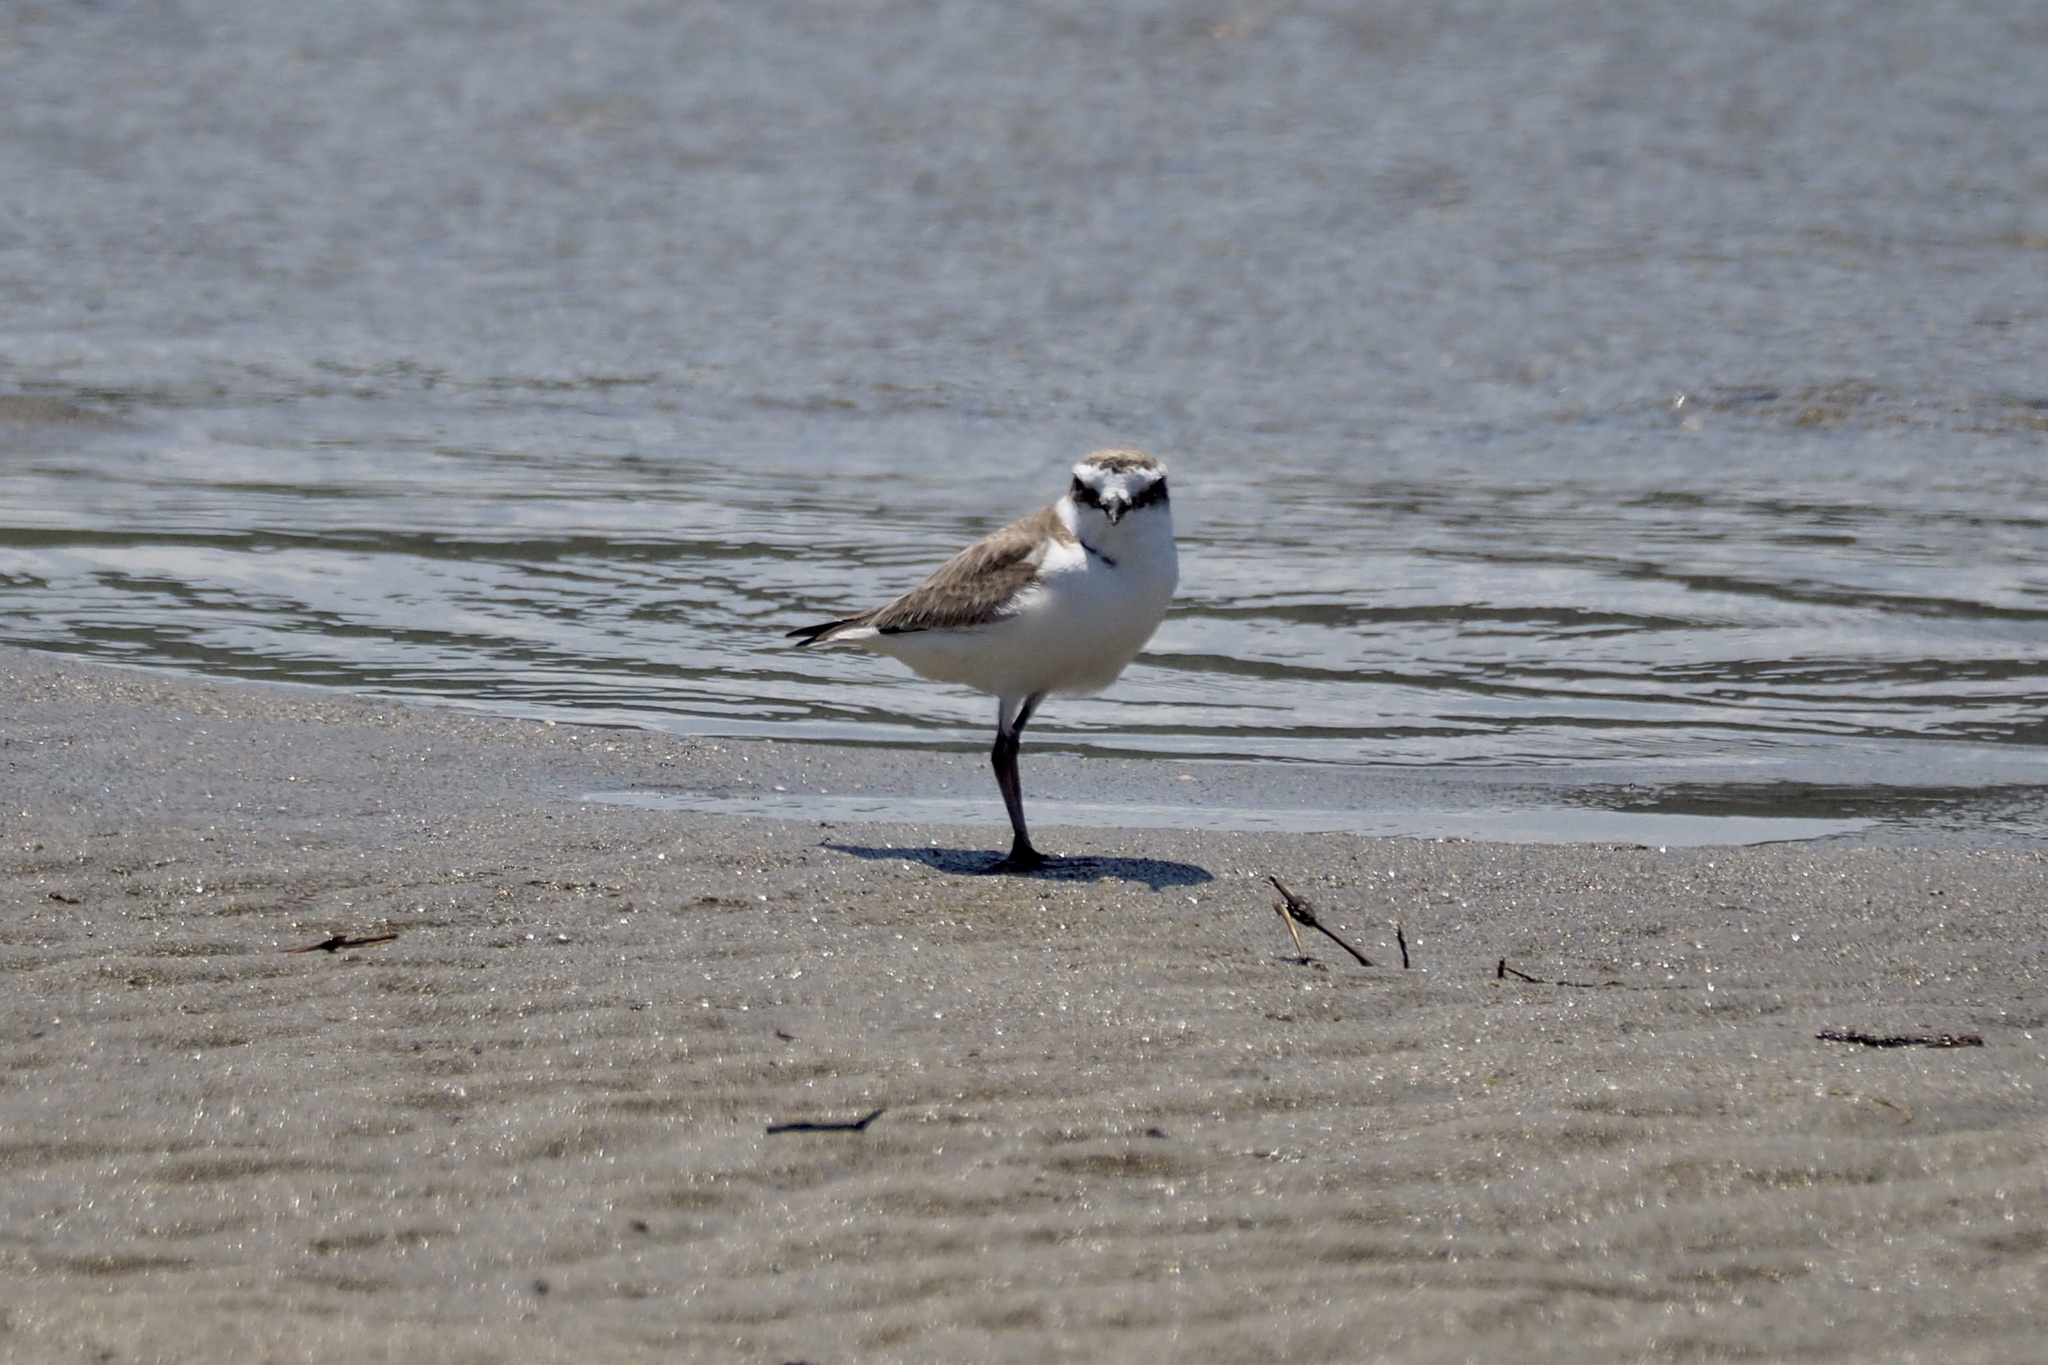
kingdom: Animalia
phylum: Chordata
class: Aves
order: Charadriiformes
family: Charadriidae
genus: Charadrius
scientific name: Charadrius alexandrinus
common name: Kentish plover
